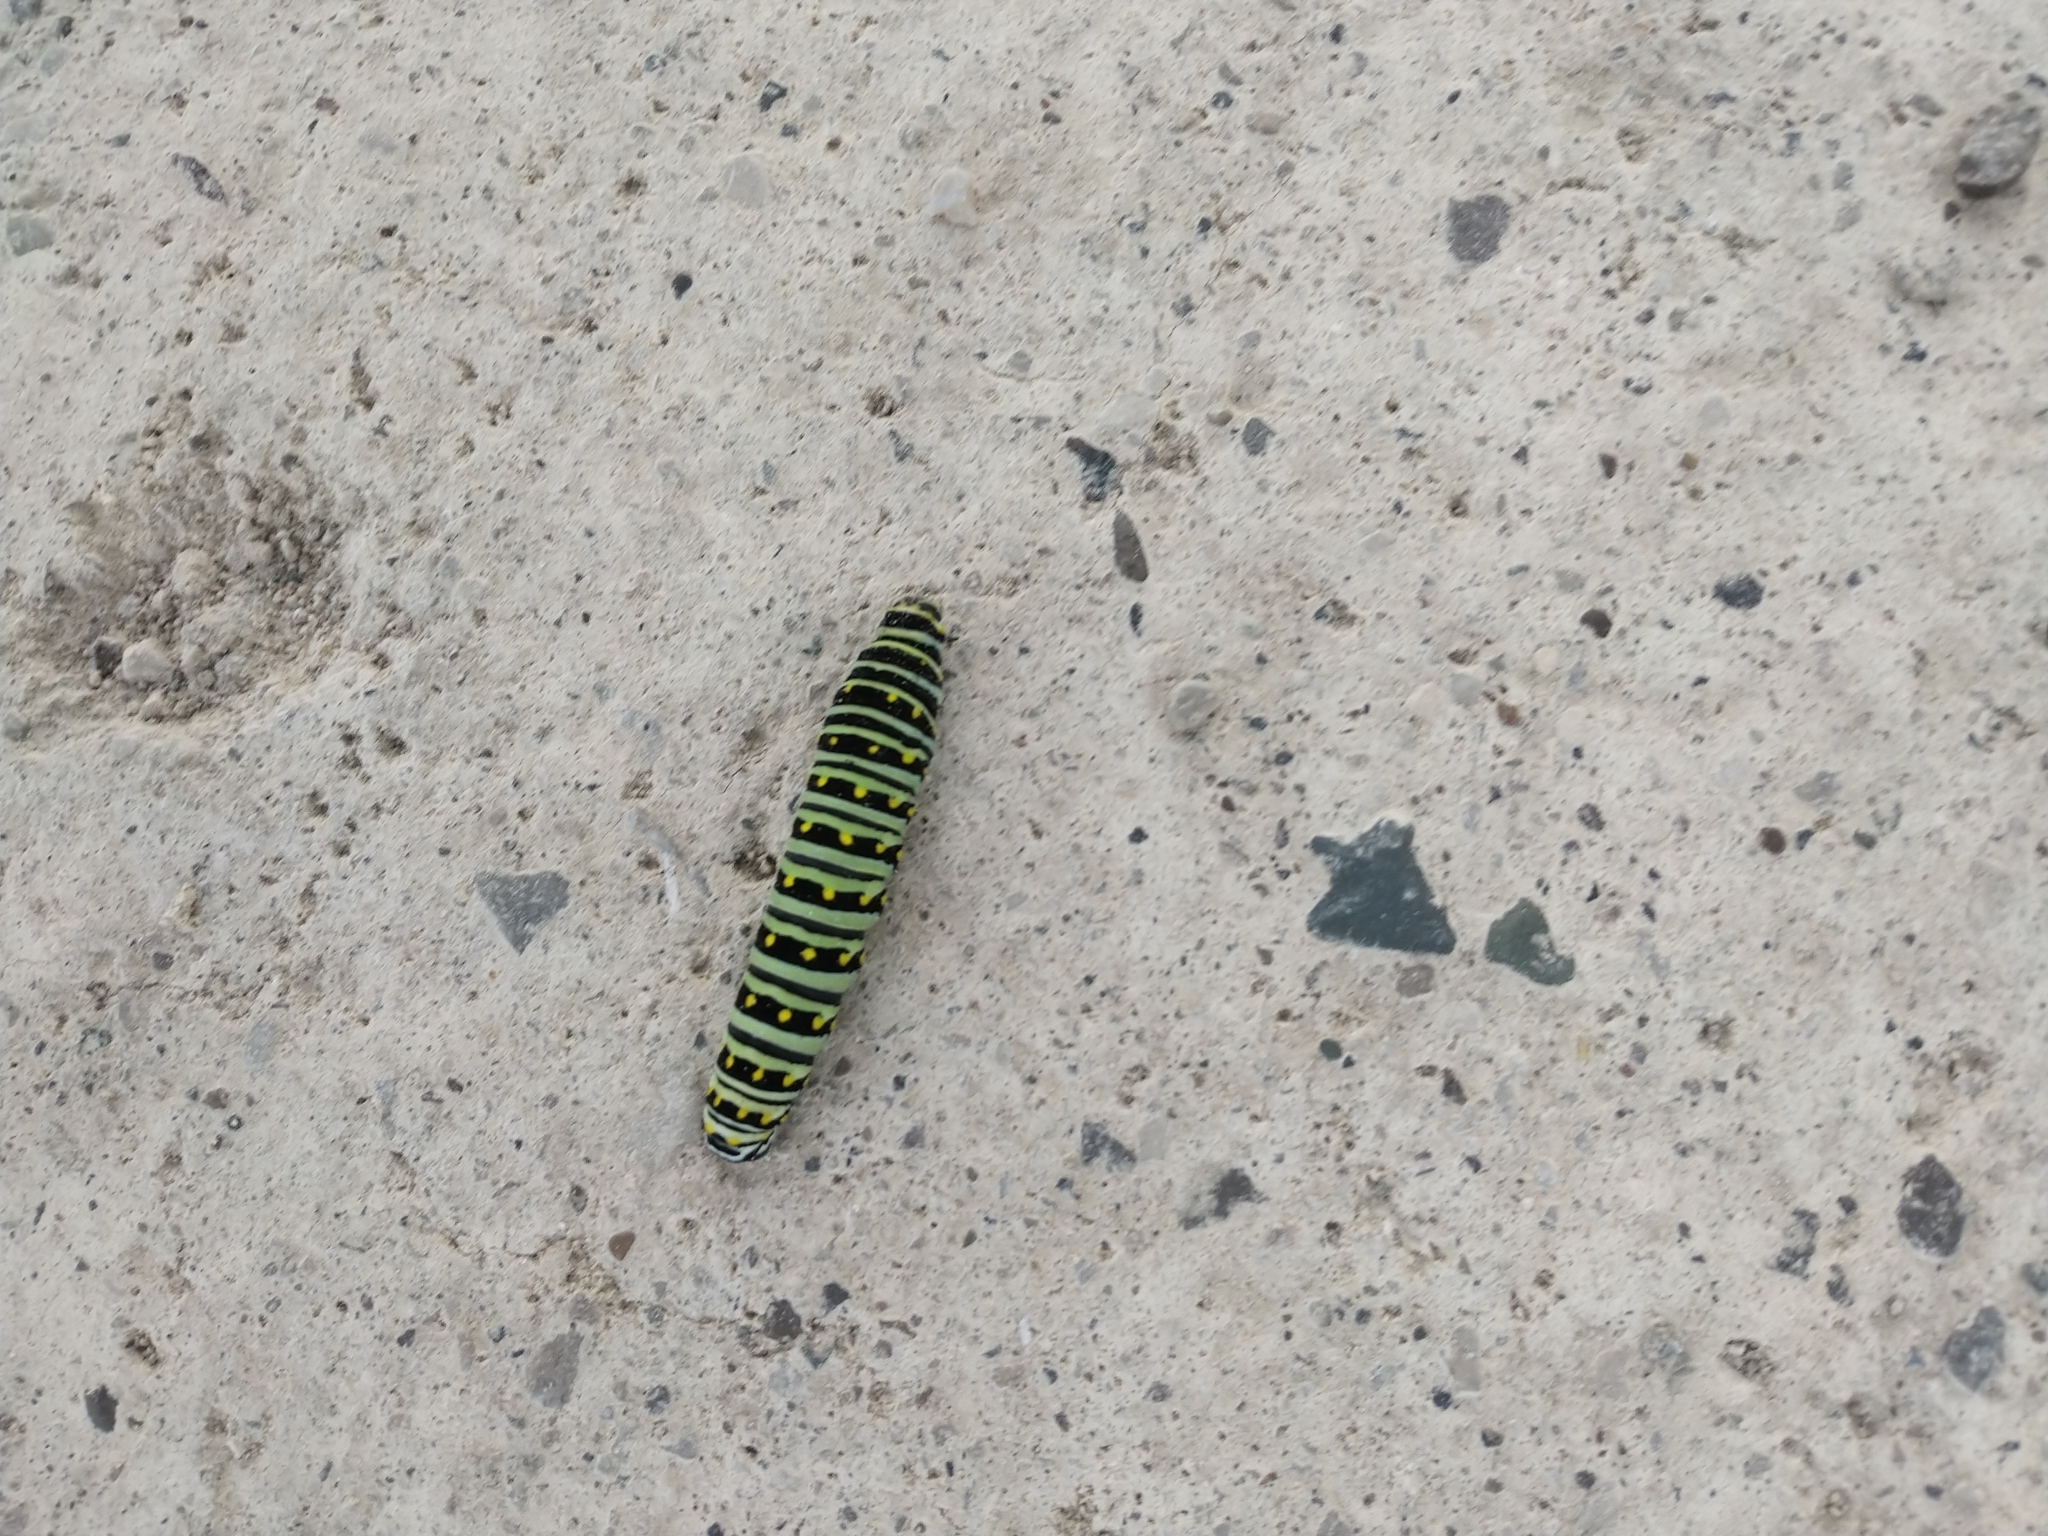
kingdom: Animalia
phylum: Arthropoda
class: Insecta
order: Lepidoptera
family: Papilionidae
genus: Papilio
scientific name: Papilio polyxenes
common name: Black swallowtail
